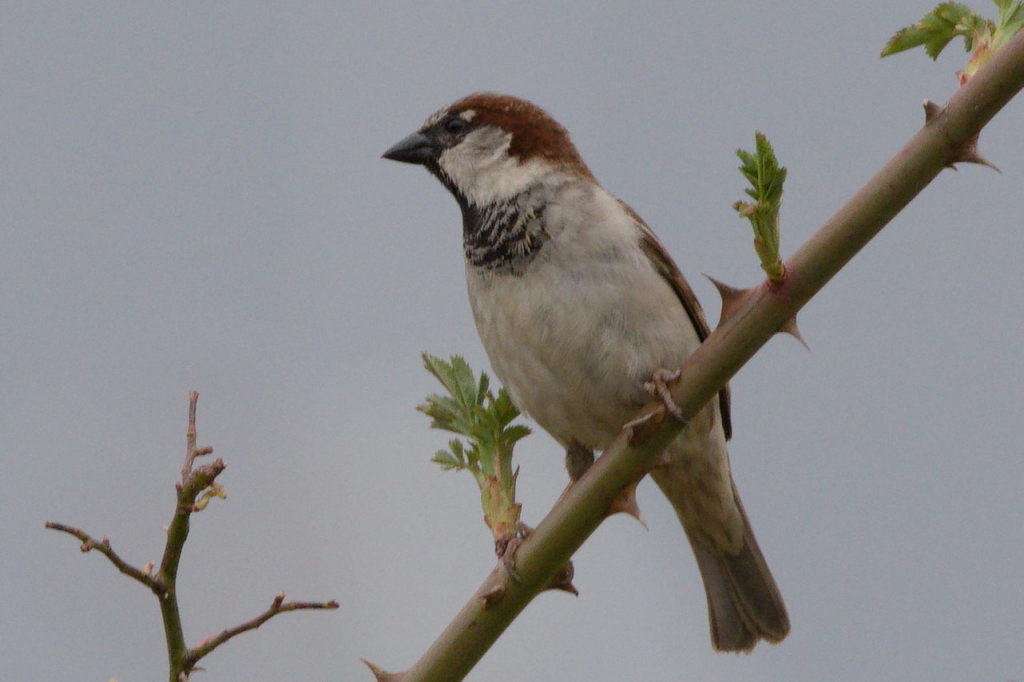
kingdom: Animalia
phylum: Chordata
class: Aves
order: Passeriformes
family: Passeridae
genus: Passer
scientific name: Passer domesticus
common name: House sparrow
